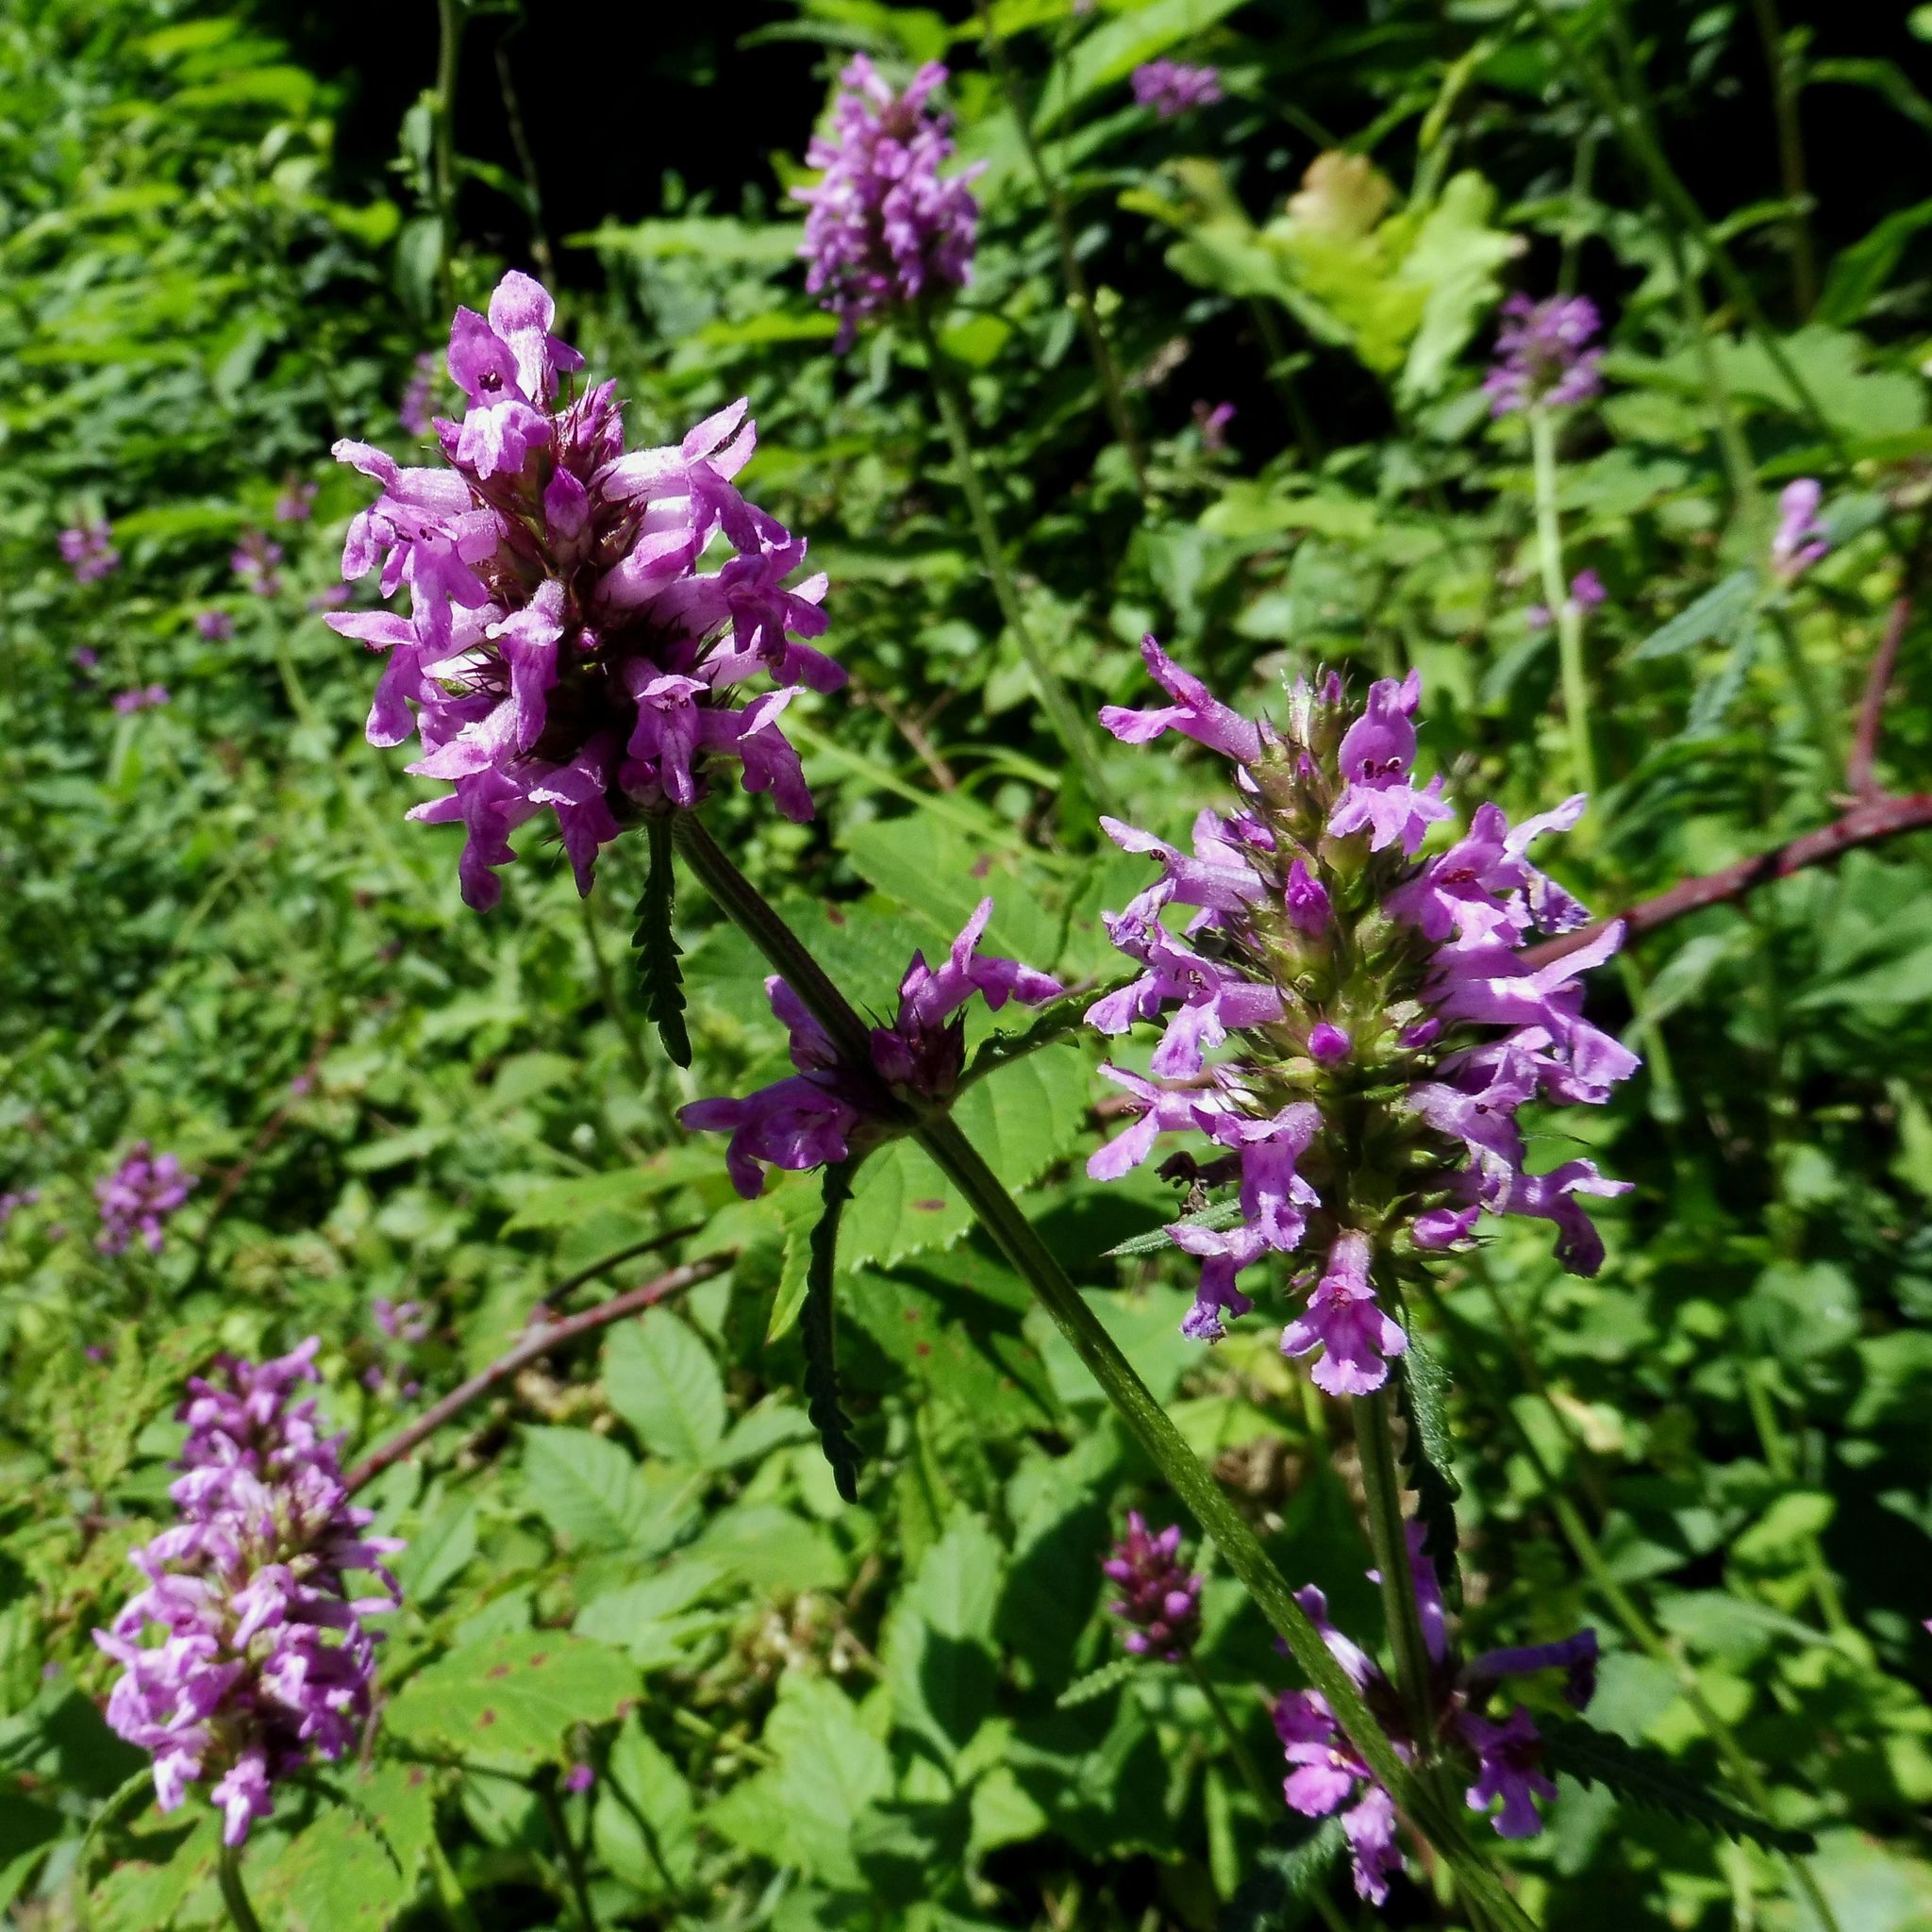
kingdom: Plantae
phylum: Tracheophyta
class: Magnoliopsida
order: Lamiales
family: Lamiaceae
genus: Betonica
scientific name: Betonica officinalis
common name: Bishop's-wort
